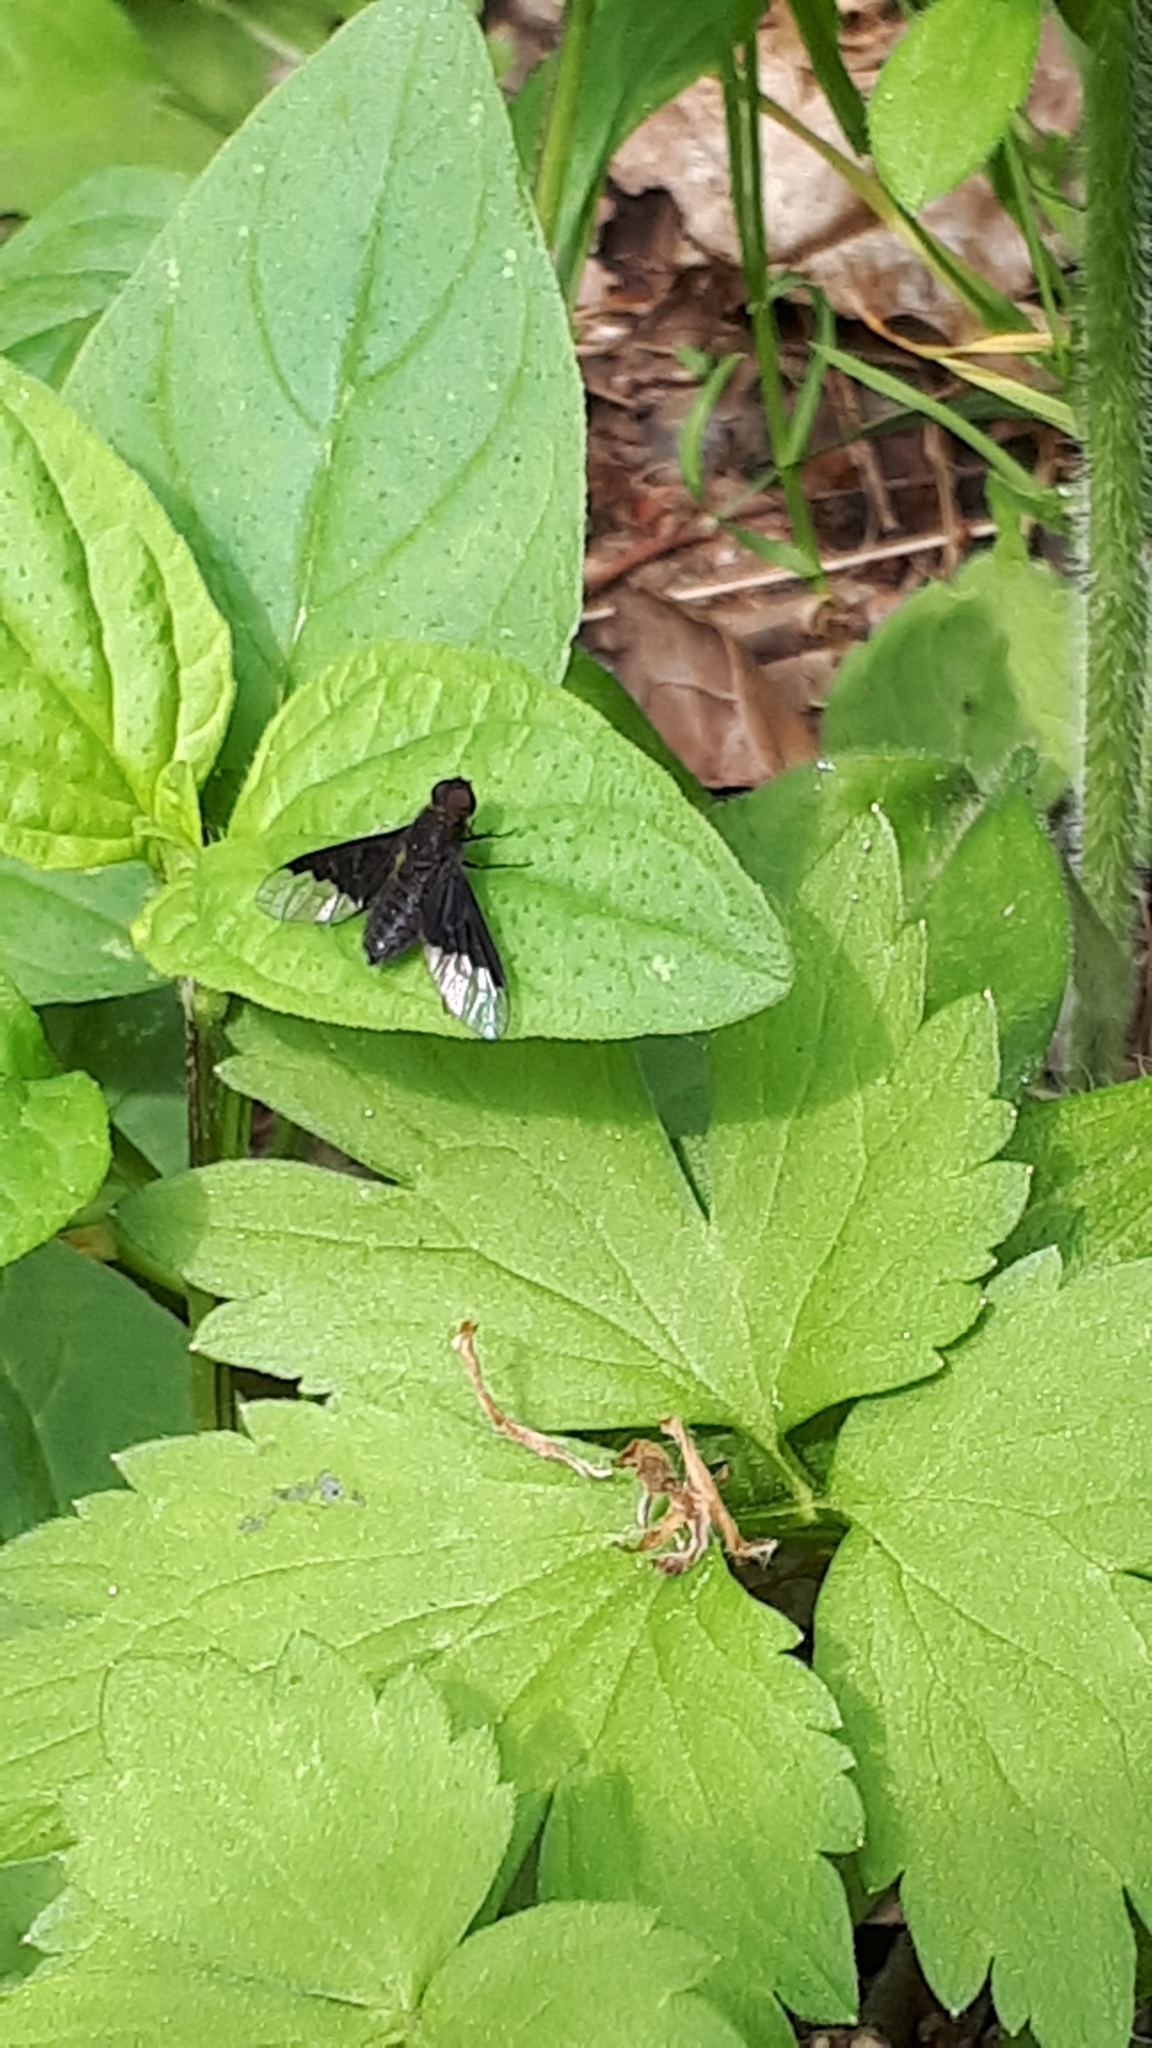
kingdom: Animalia
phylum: Arthropoda
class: Insecta
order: Diptera
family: Bombyliidae
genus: Hemipenthes
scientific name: Hemipenthes morio
